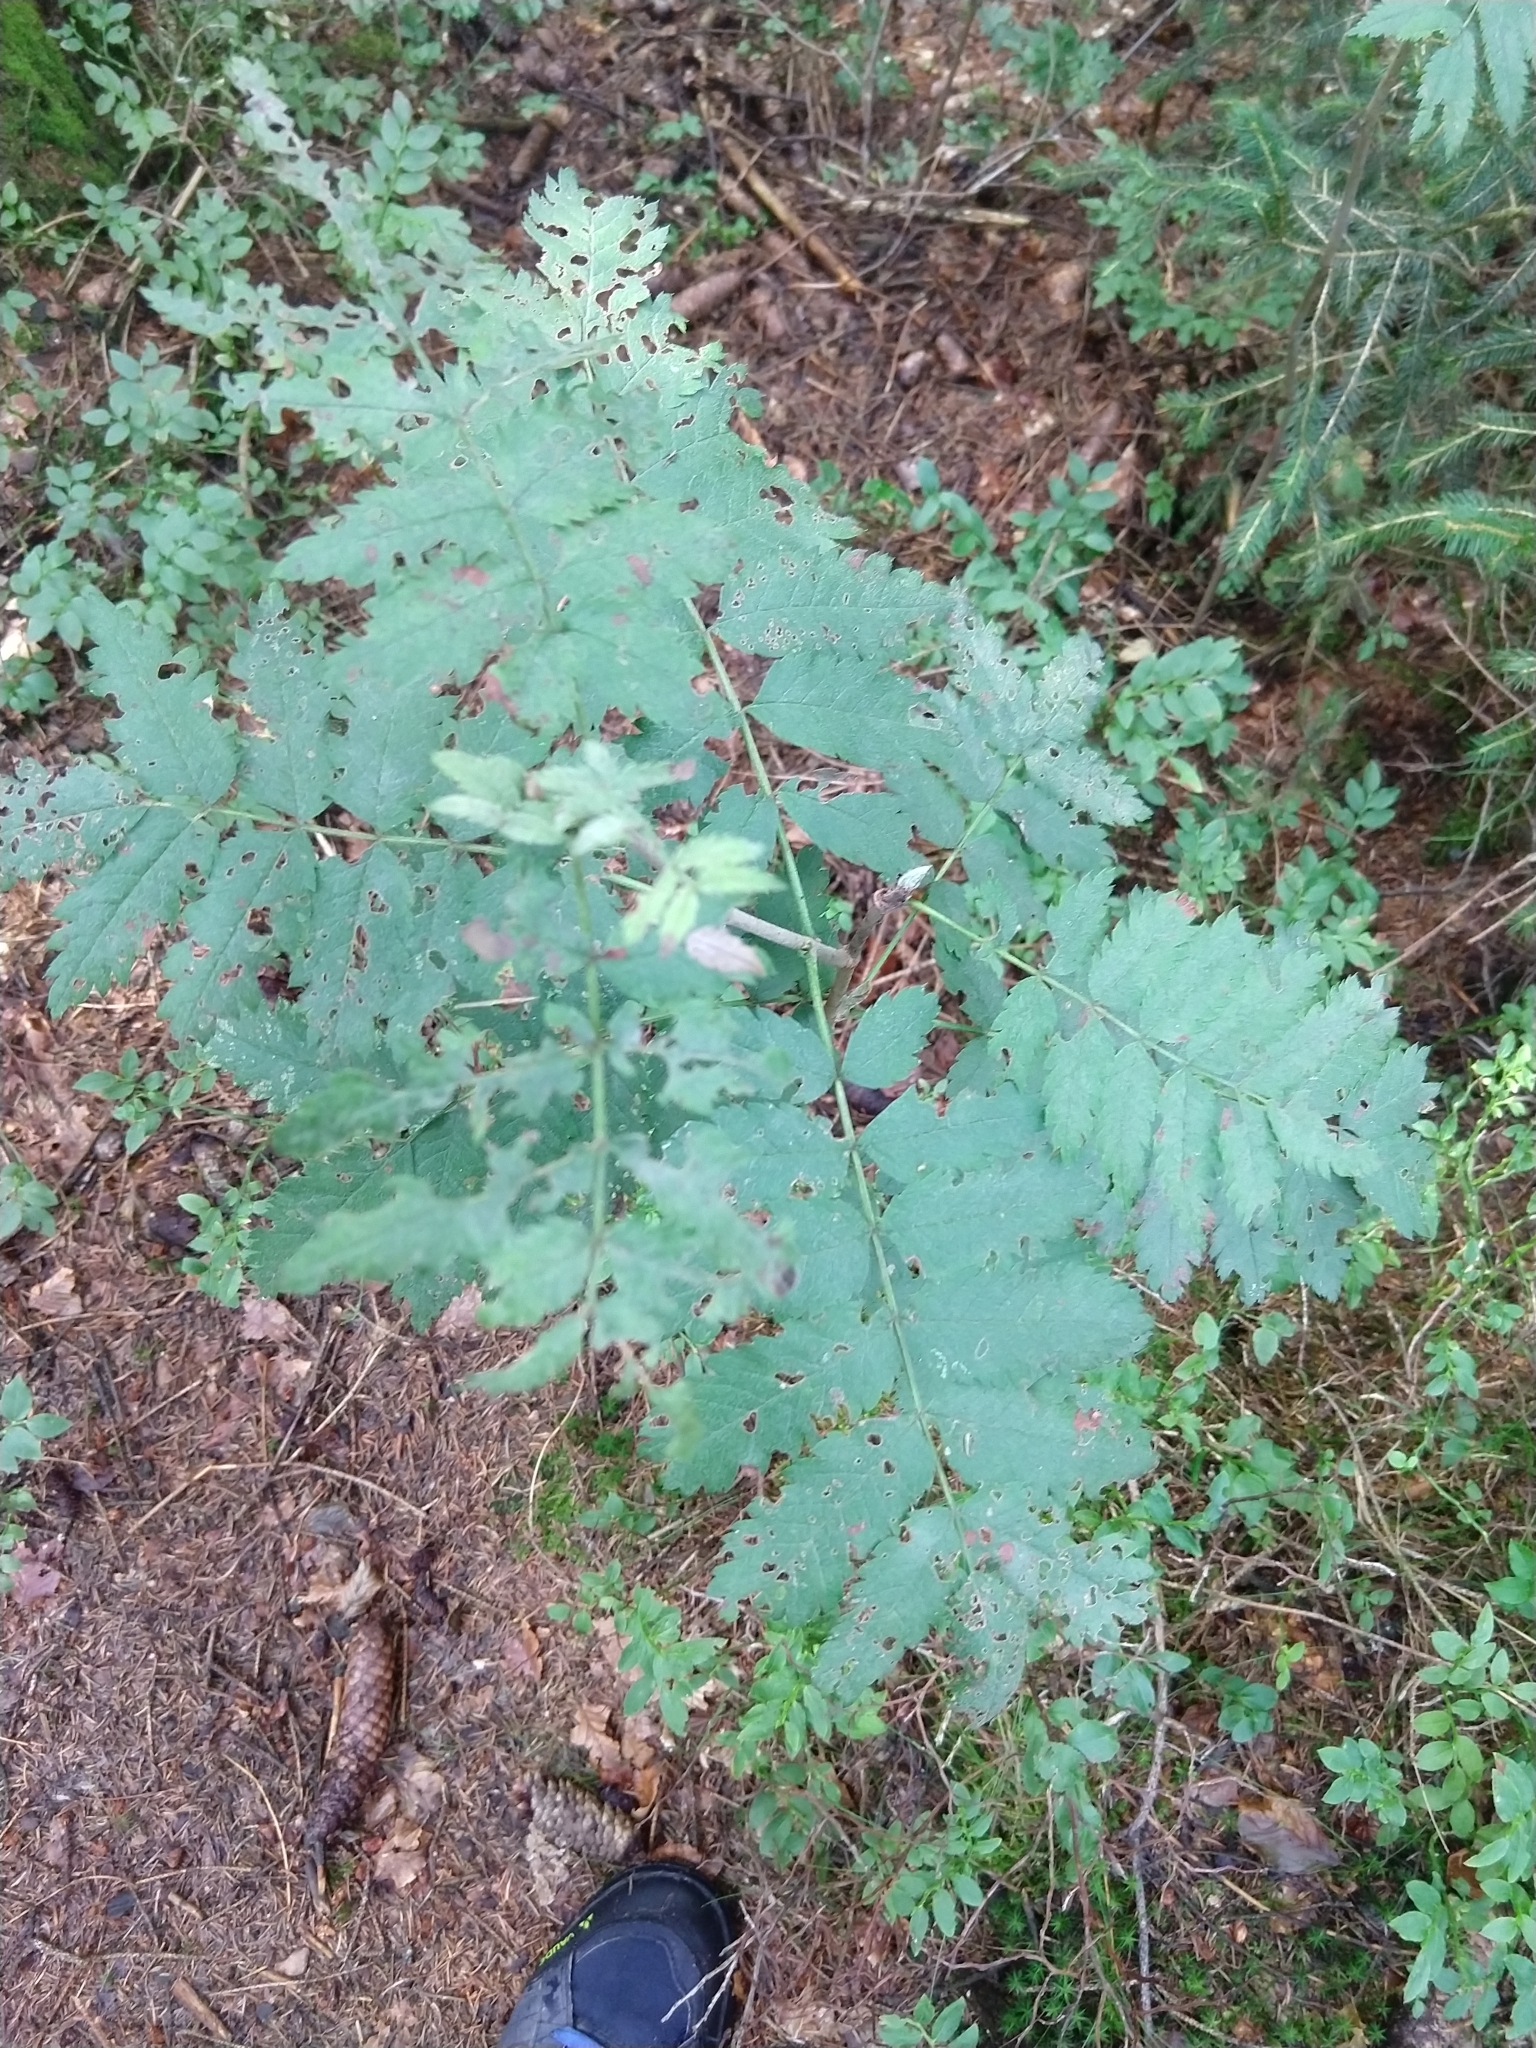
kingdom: Plantae
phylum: Tracheophyta
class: Magnoliopsida
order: Rosales
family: Rosaceae
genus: Sorbus
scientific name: Sorbus aucuparia
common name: Rowan
